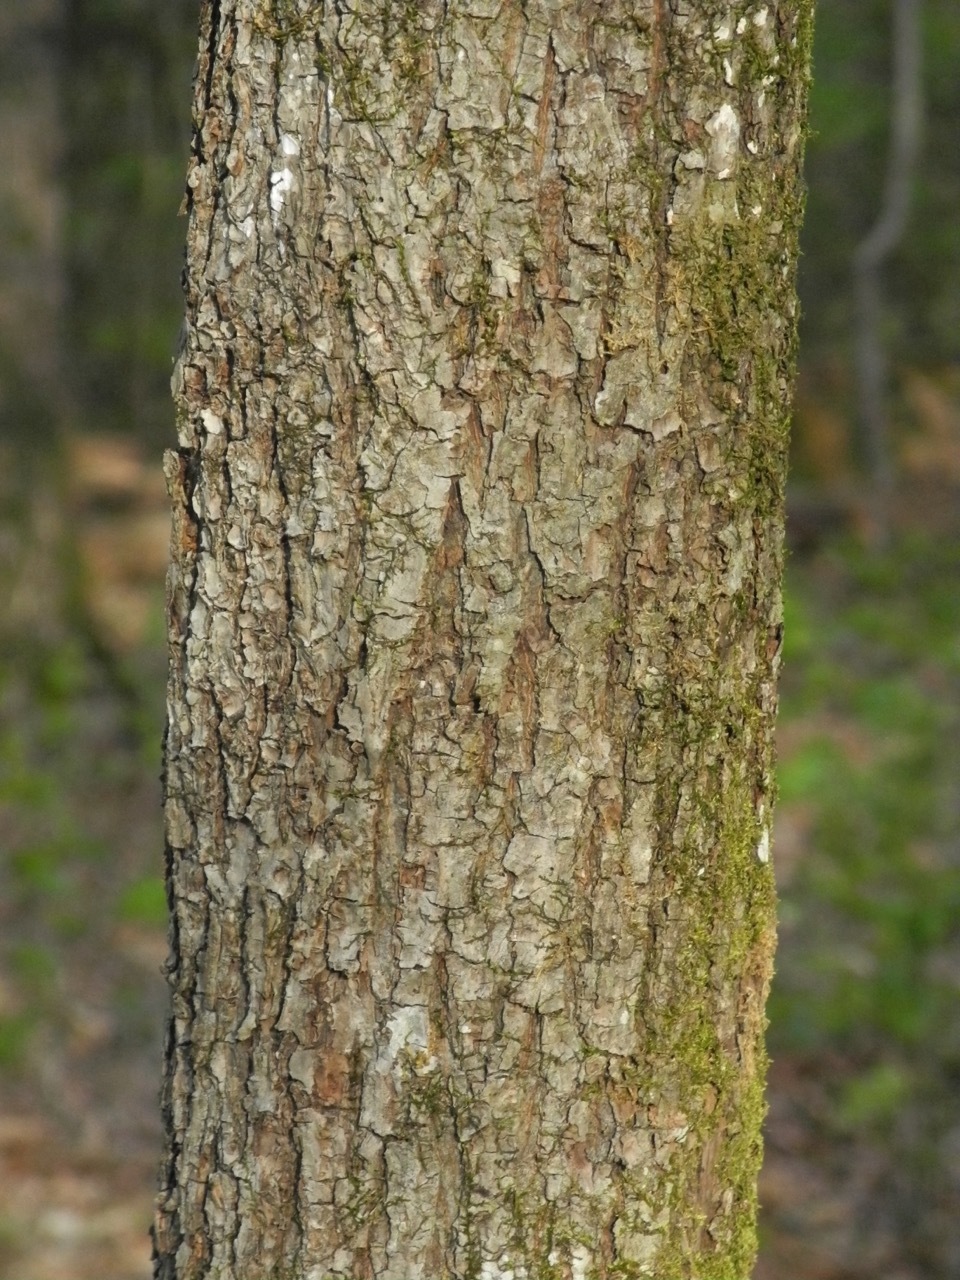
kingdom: Plantae
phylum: Tracheophyta
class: Magnoliopsida
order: Lamiales
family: Oleaceae
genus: Fraxinus
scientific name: Fraxinus pennsylvanica
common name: Green ash
